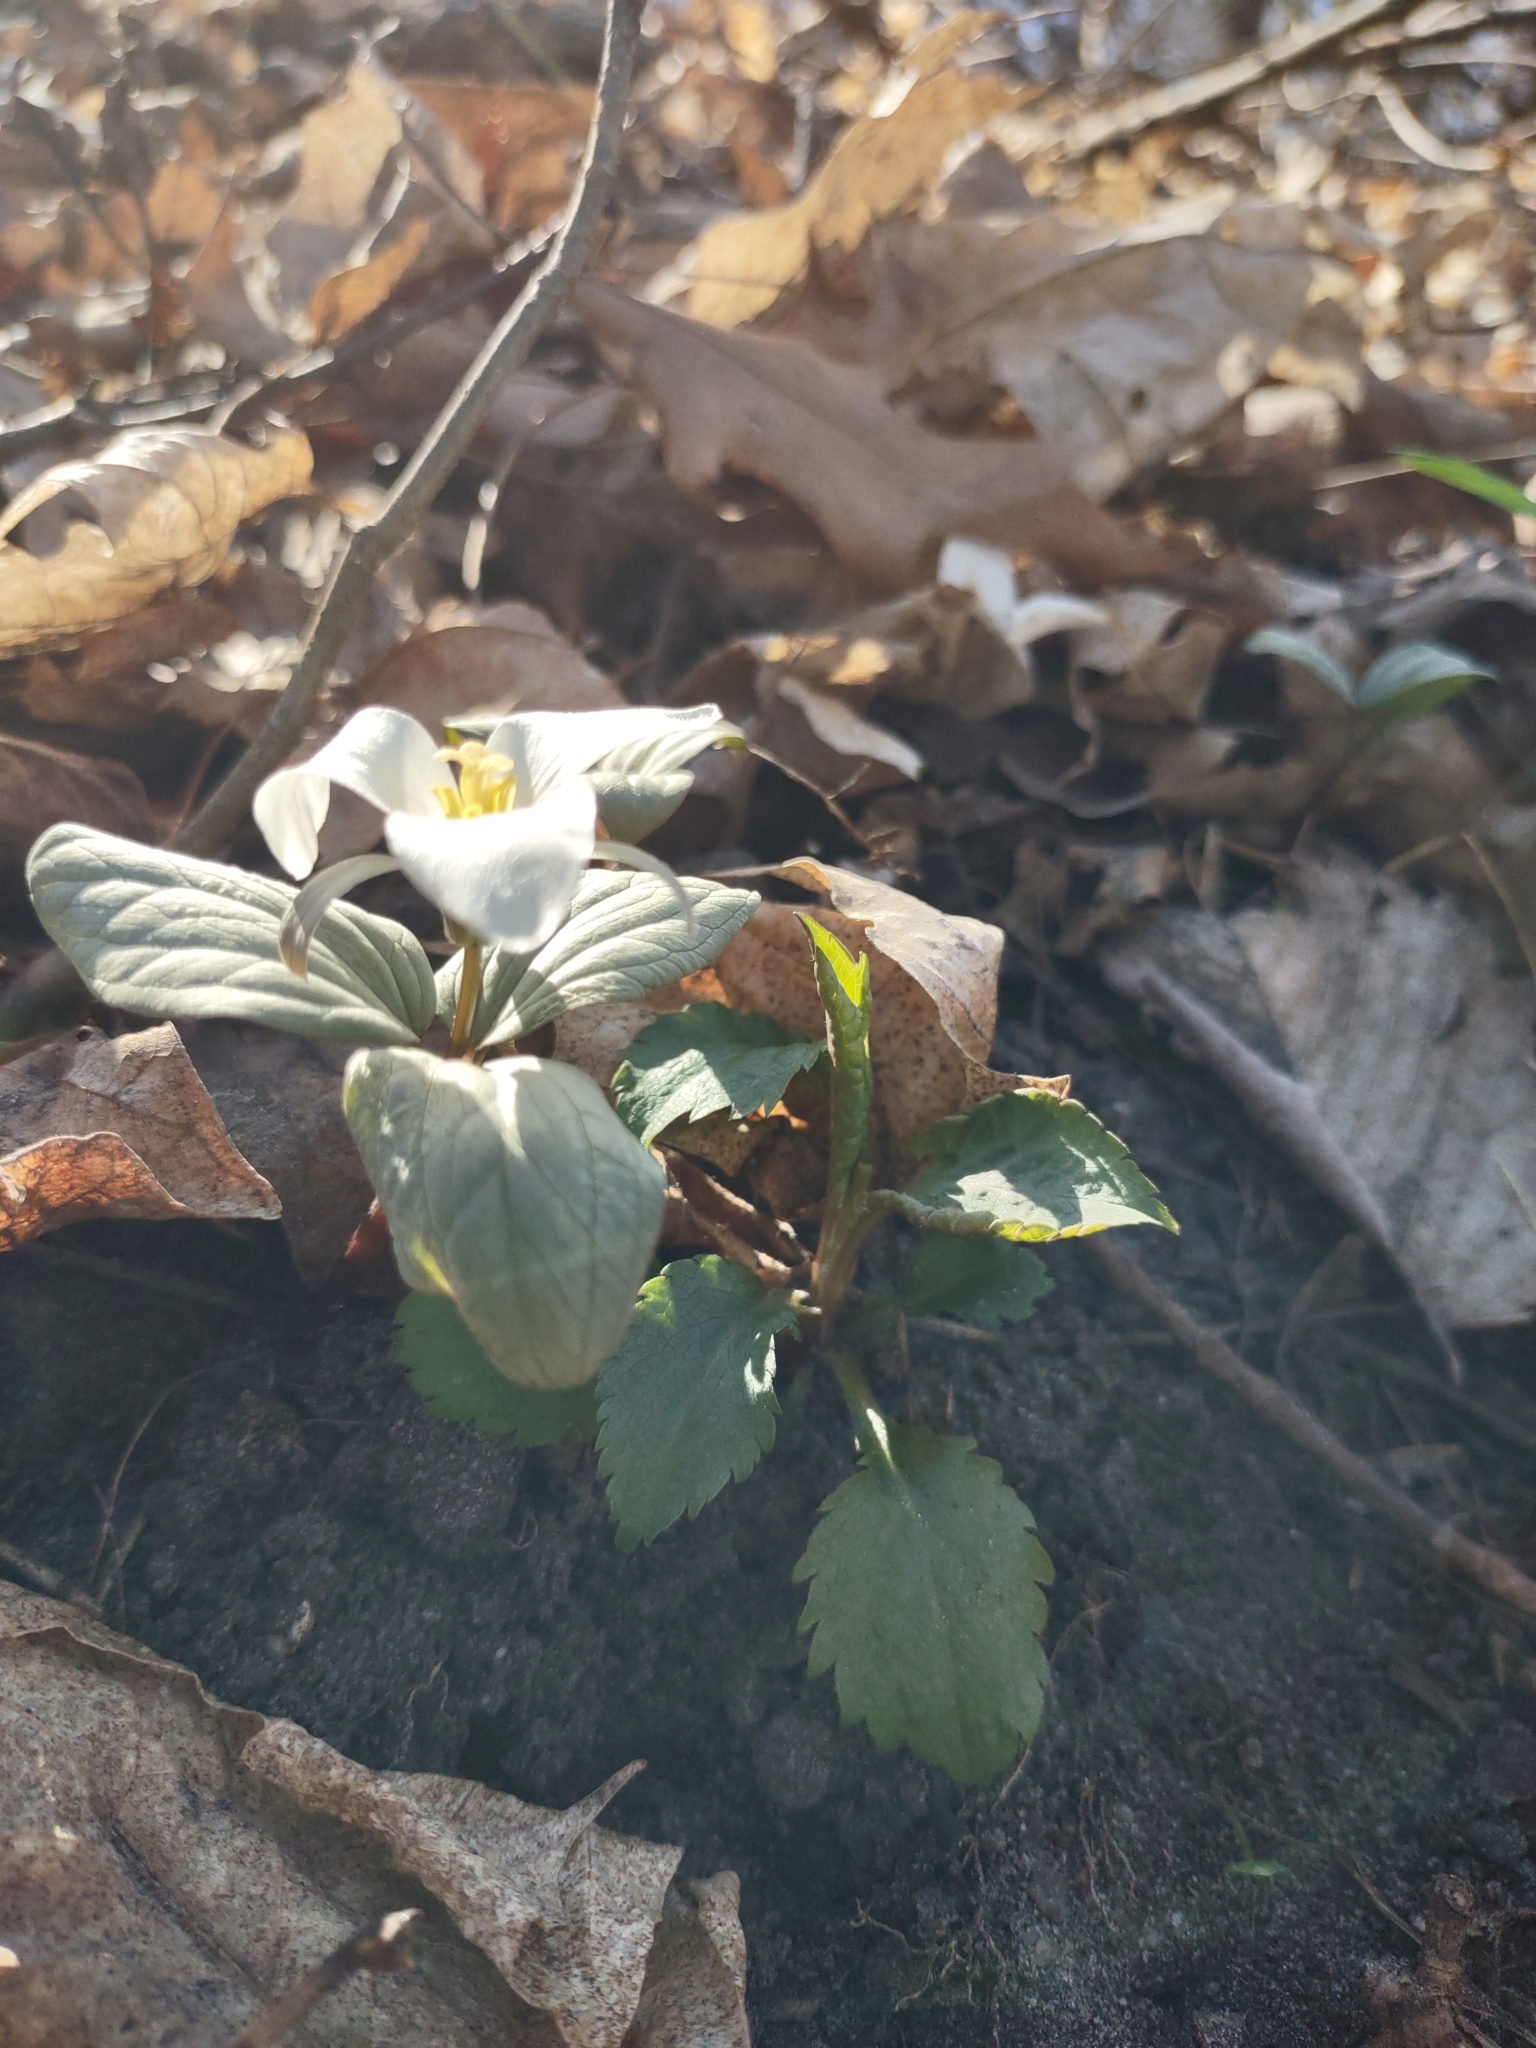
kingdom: Plantae
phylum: Tracheophyta
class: Liliopsida
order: Liliales
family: Melanthiaceae
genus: Trillium
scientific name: Trillium nivale
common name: Dwarf white trillium
